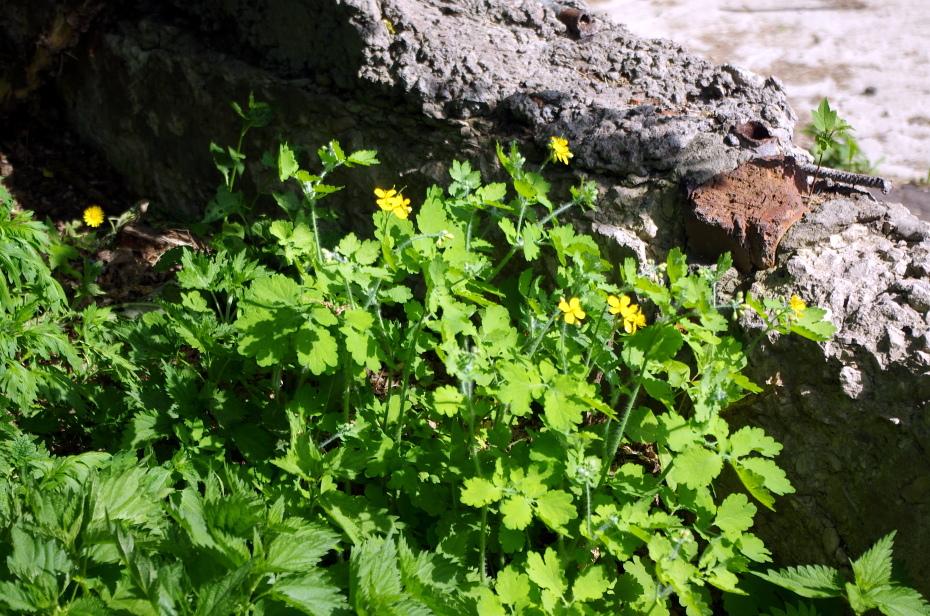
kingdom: Plantae
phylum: Tracheophyta
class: Magnoliopsida
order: Ranunculales
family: Papaveraceae
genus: Chelidonium
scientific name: Chelidonium majus
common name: Greater celandine
